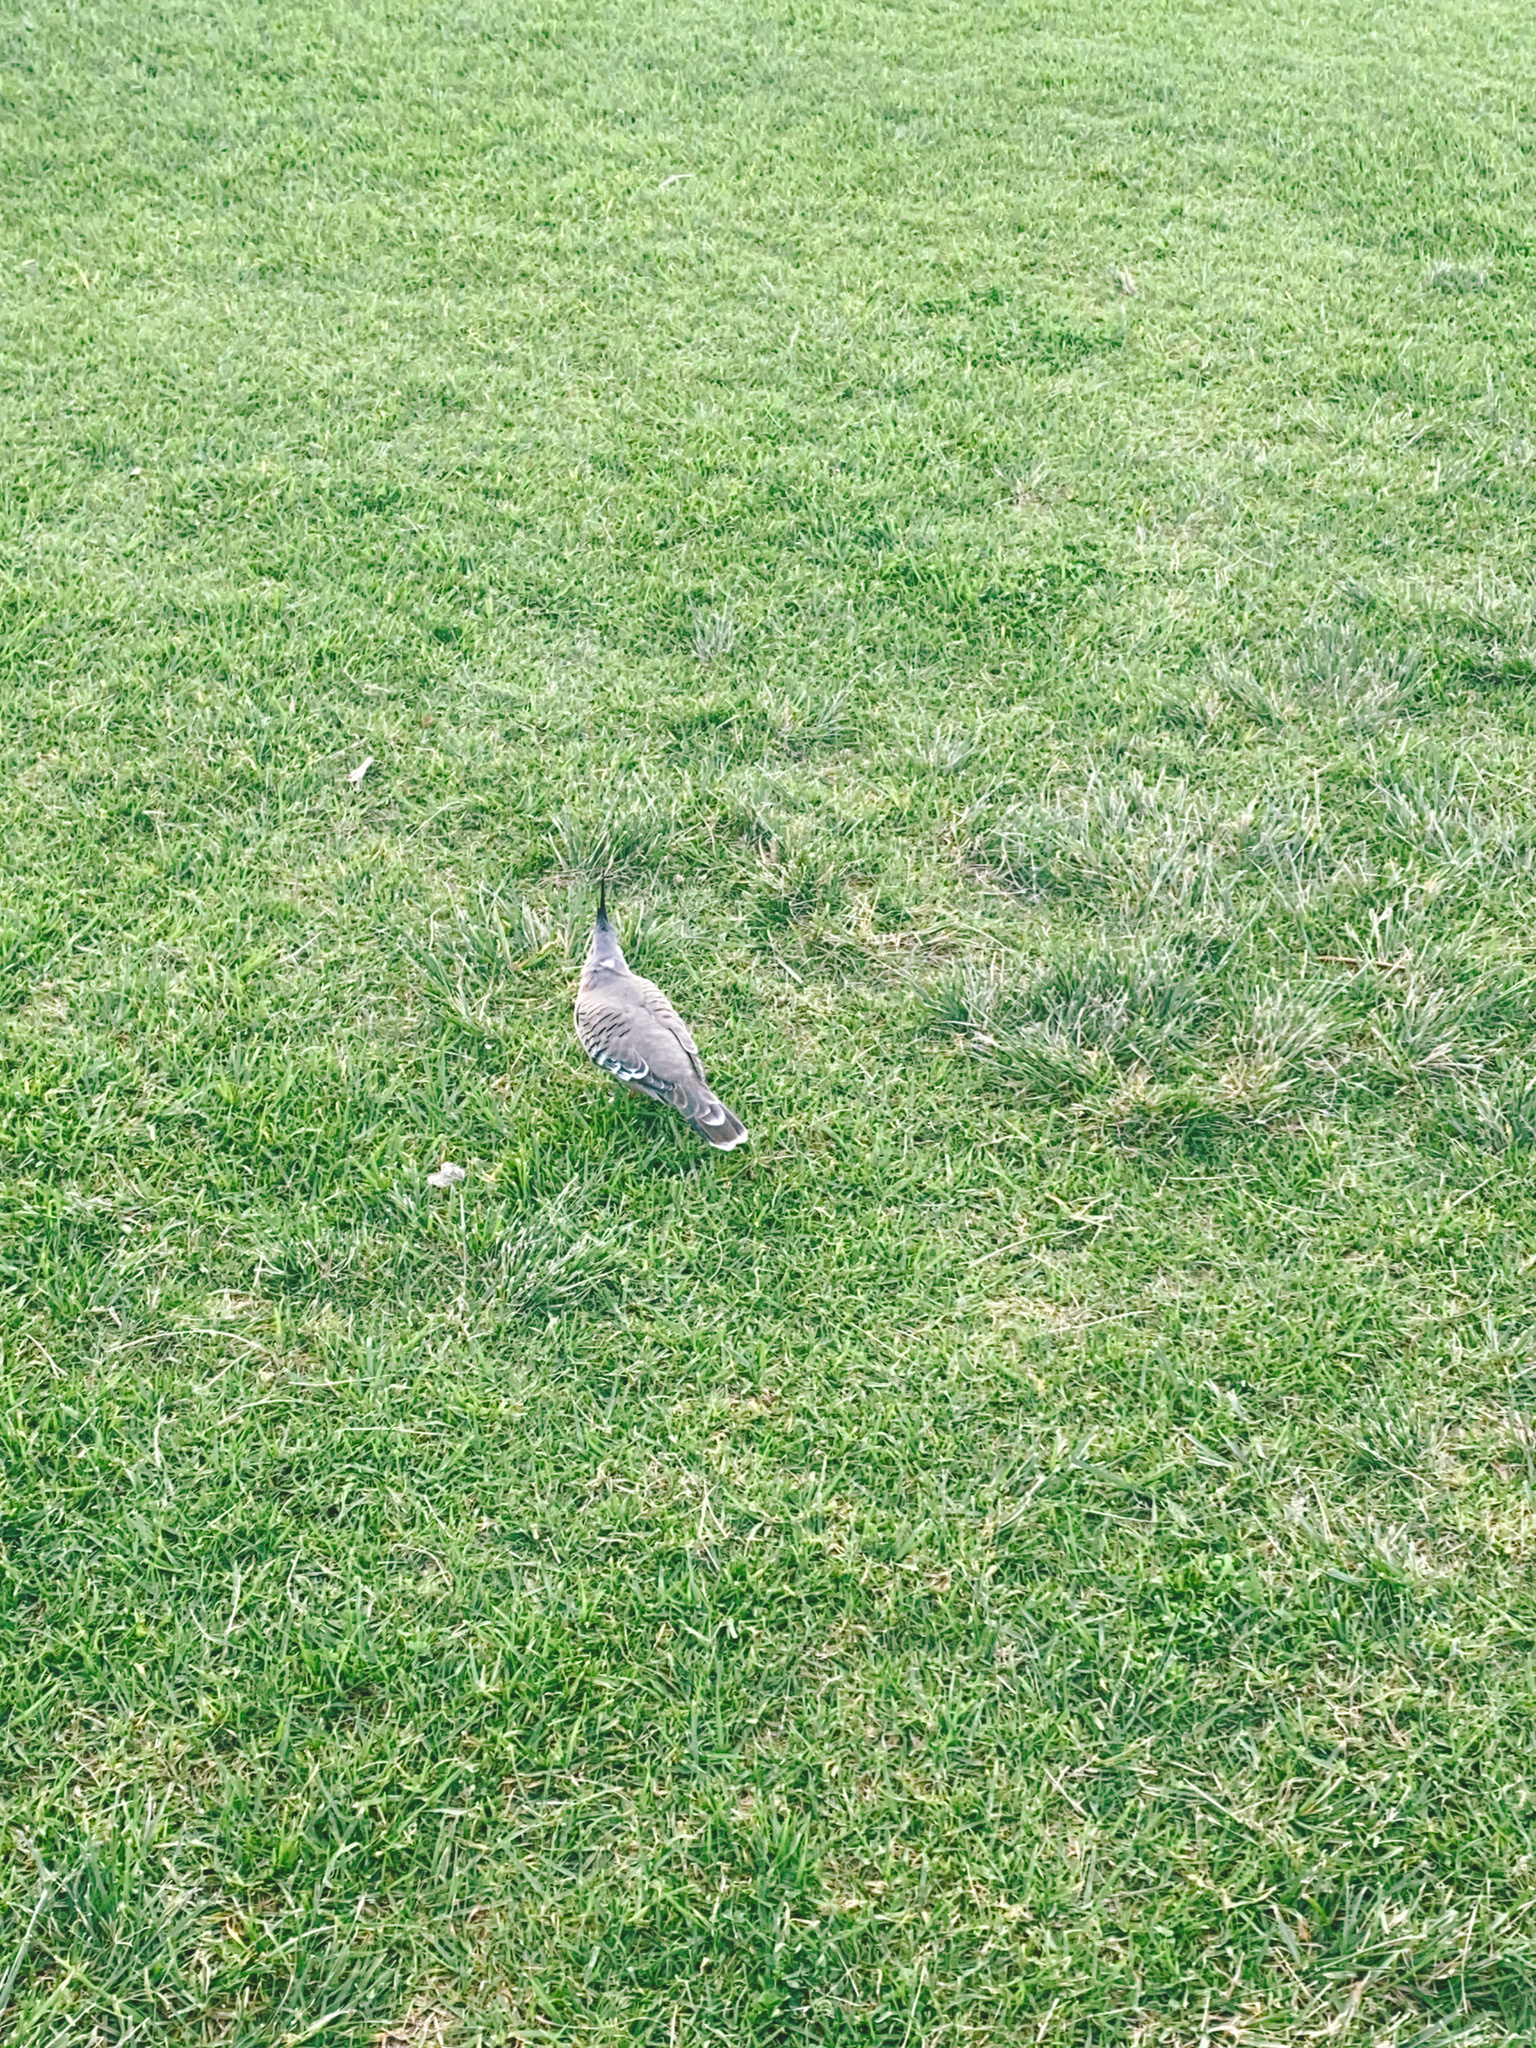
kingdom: Animalia
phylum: Chordata
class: Aves
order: Columbiformes
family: Columbidae
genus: Ocyphaps
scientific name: Ocyphaps lophotes
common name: Crested pigeon
